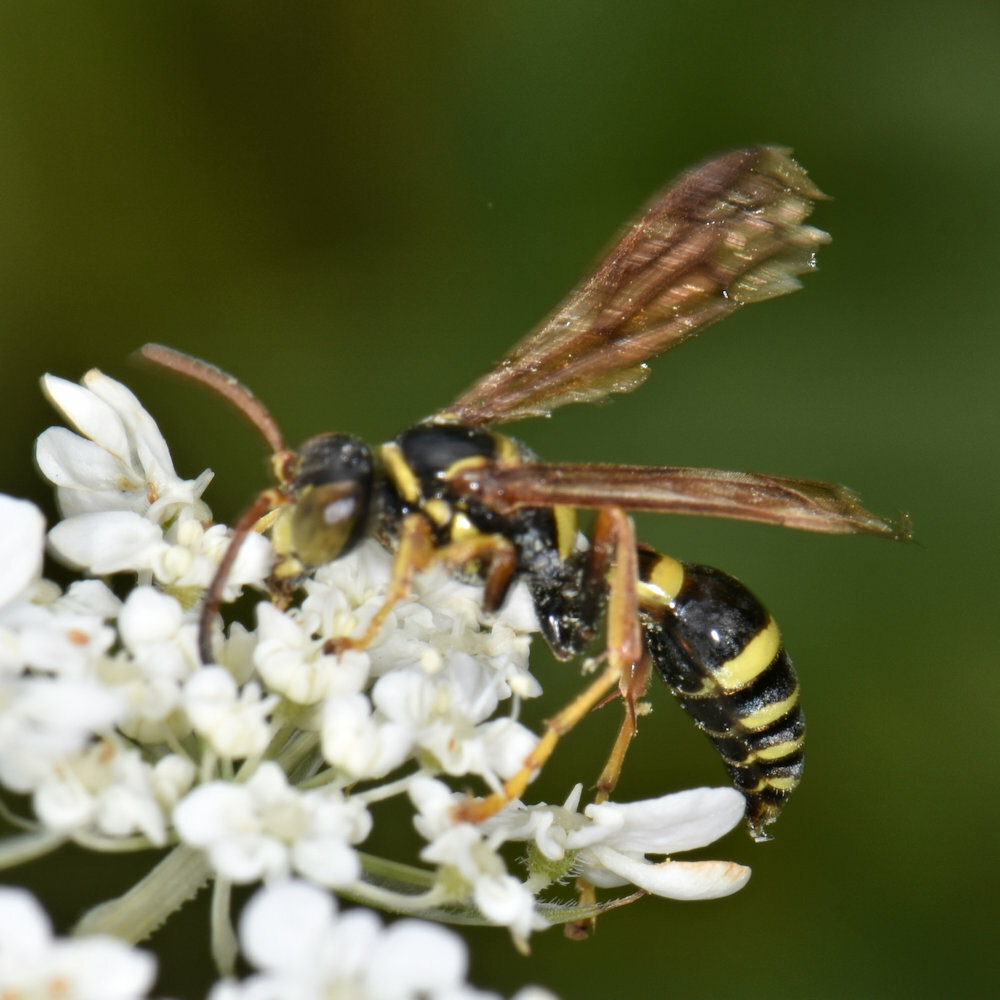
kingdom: Animalia
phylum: Arthropoda
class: Insecta
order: Hymenoptera
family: Crabronidae
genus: Saygorytes
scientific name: Saygorytes phaleratus
